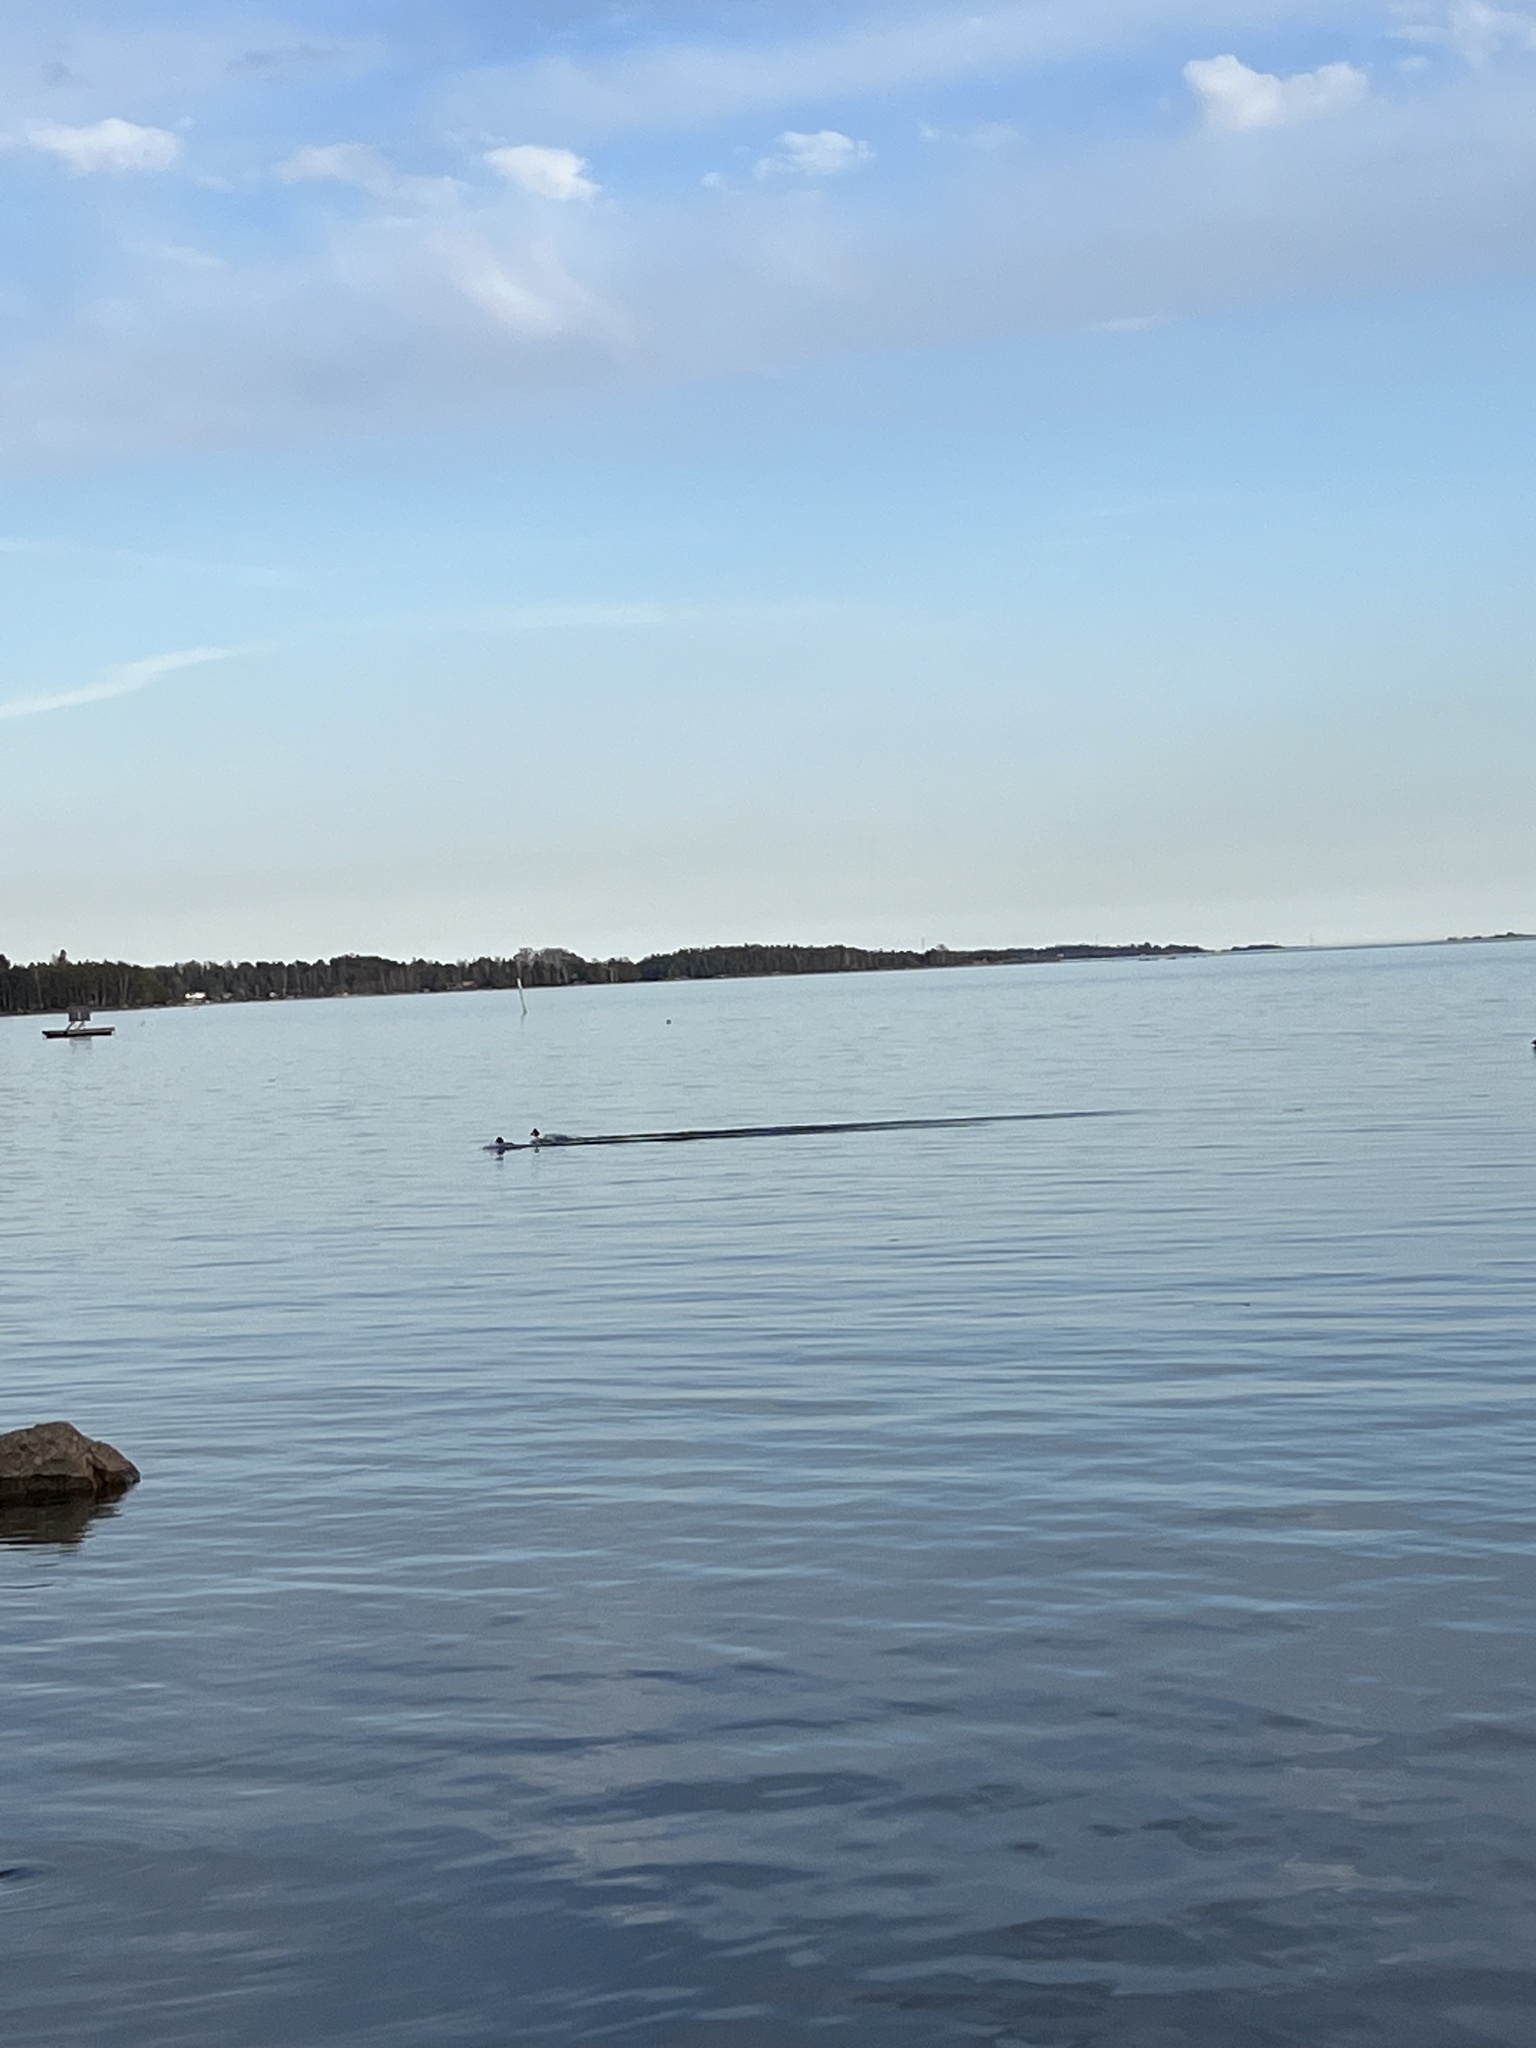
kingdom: Animalia
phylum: Chordata
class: Aves
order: Anseriformes
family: Anatidae
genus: Bucephala
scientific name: Bucephala clangula
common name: Common goldeneye
